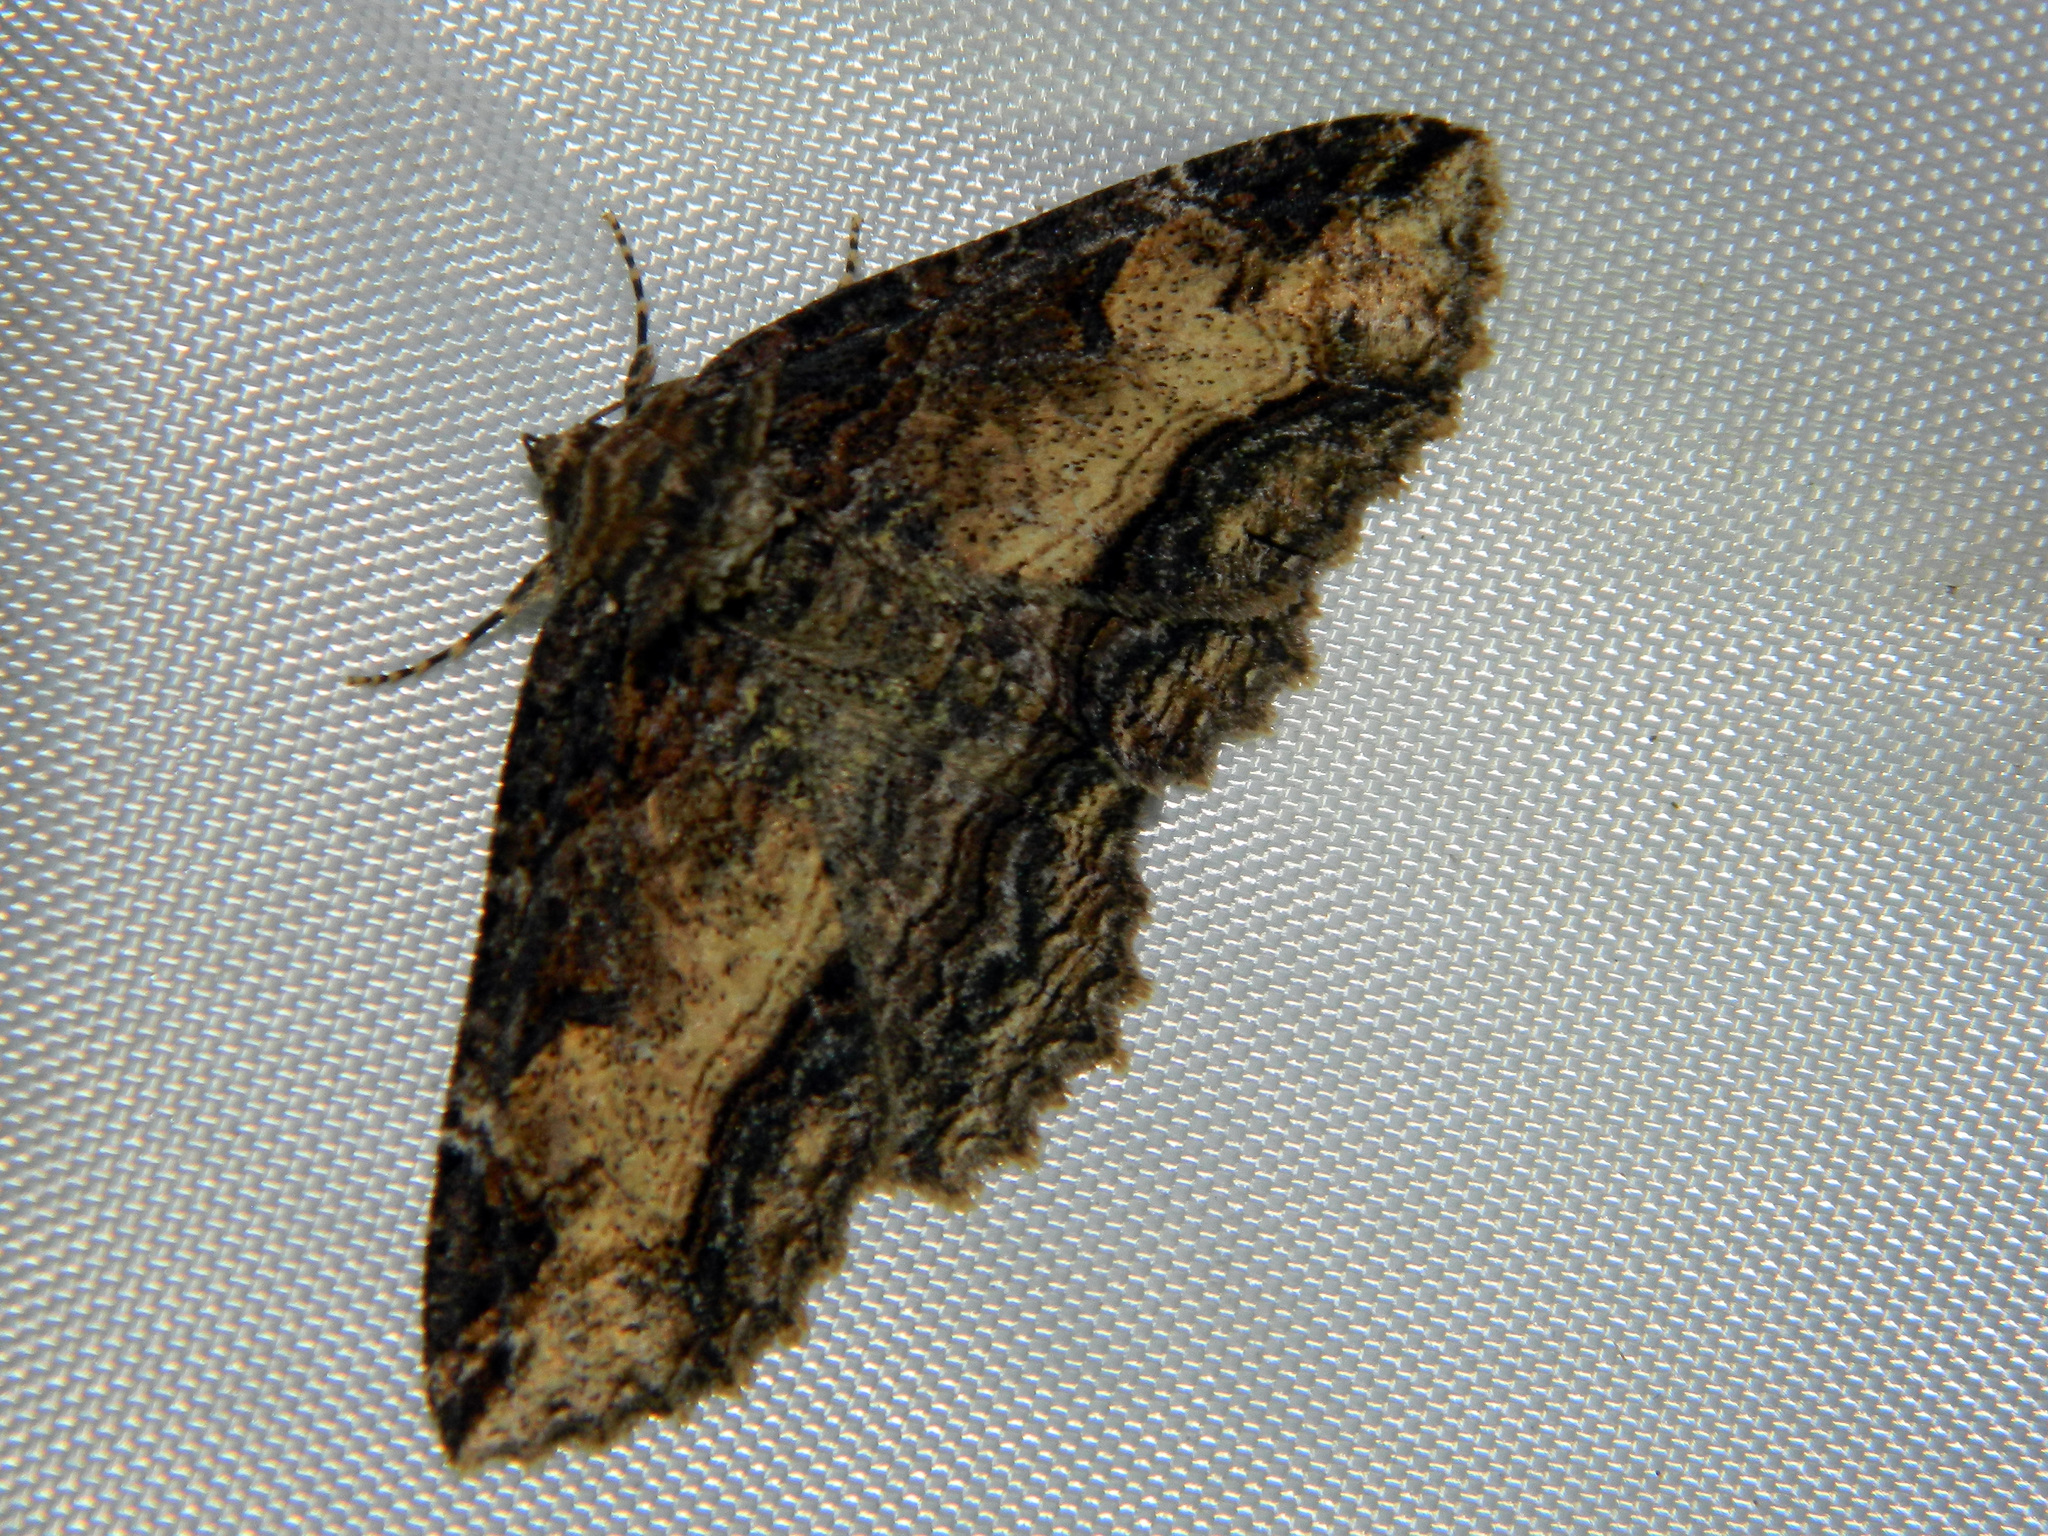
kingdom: Animalia
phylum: Arthropoda
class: Insecta
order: Lepidoptera
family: Erebidae
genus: Zale
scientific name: Zale minerea
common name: Colorful zale moth
